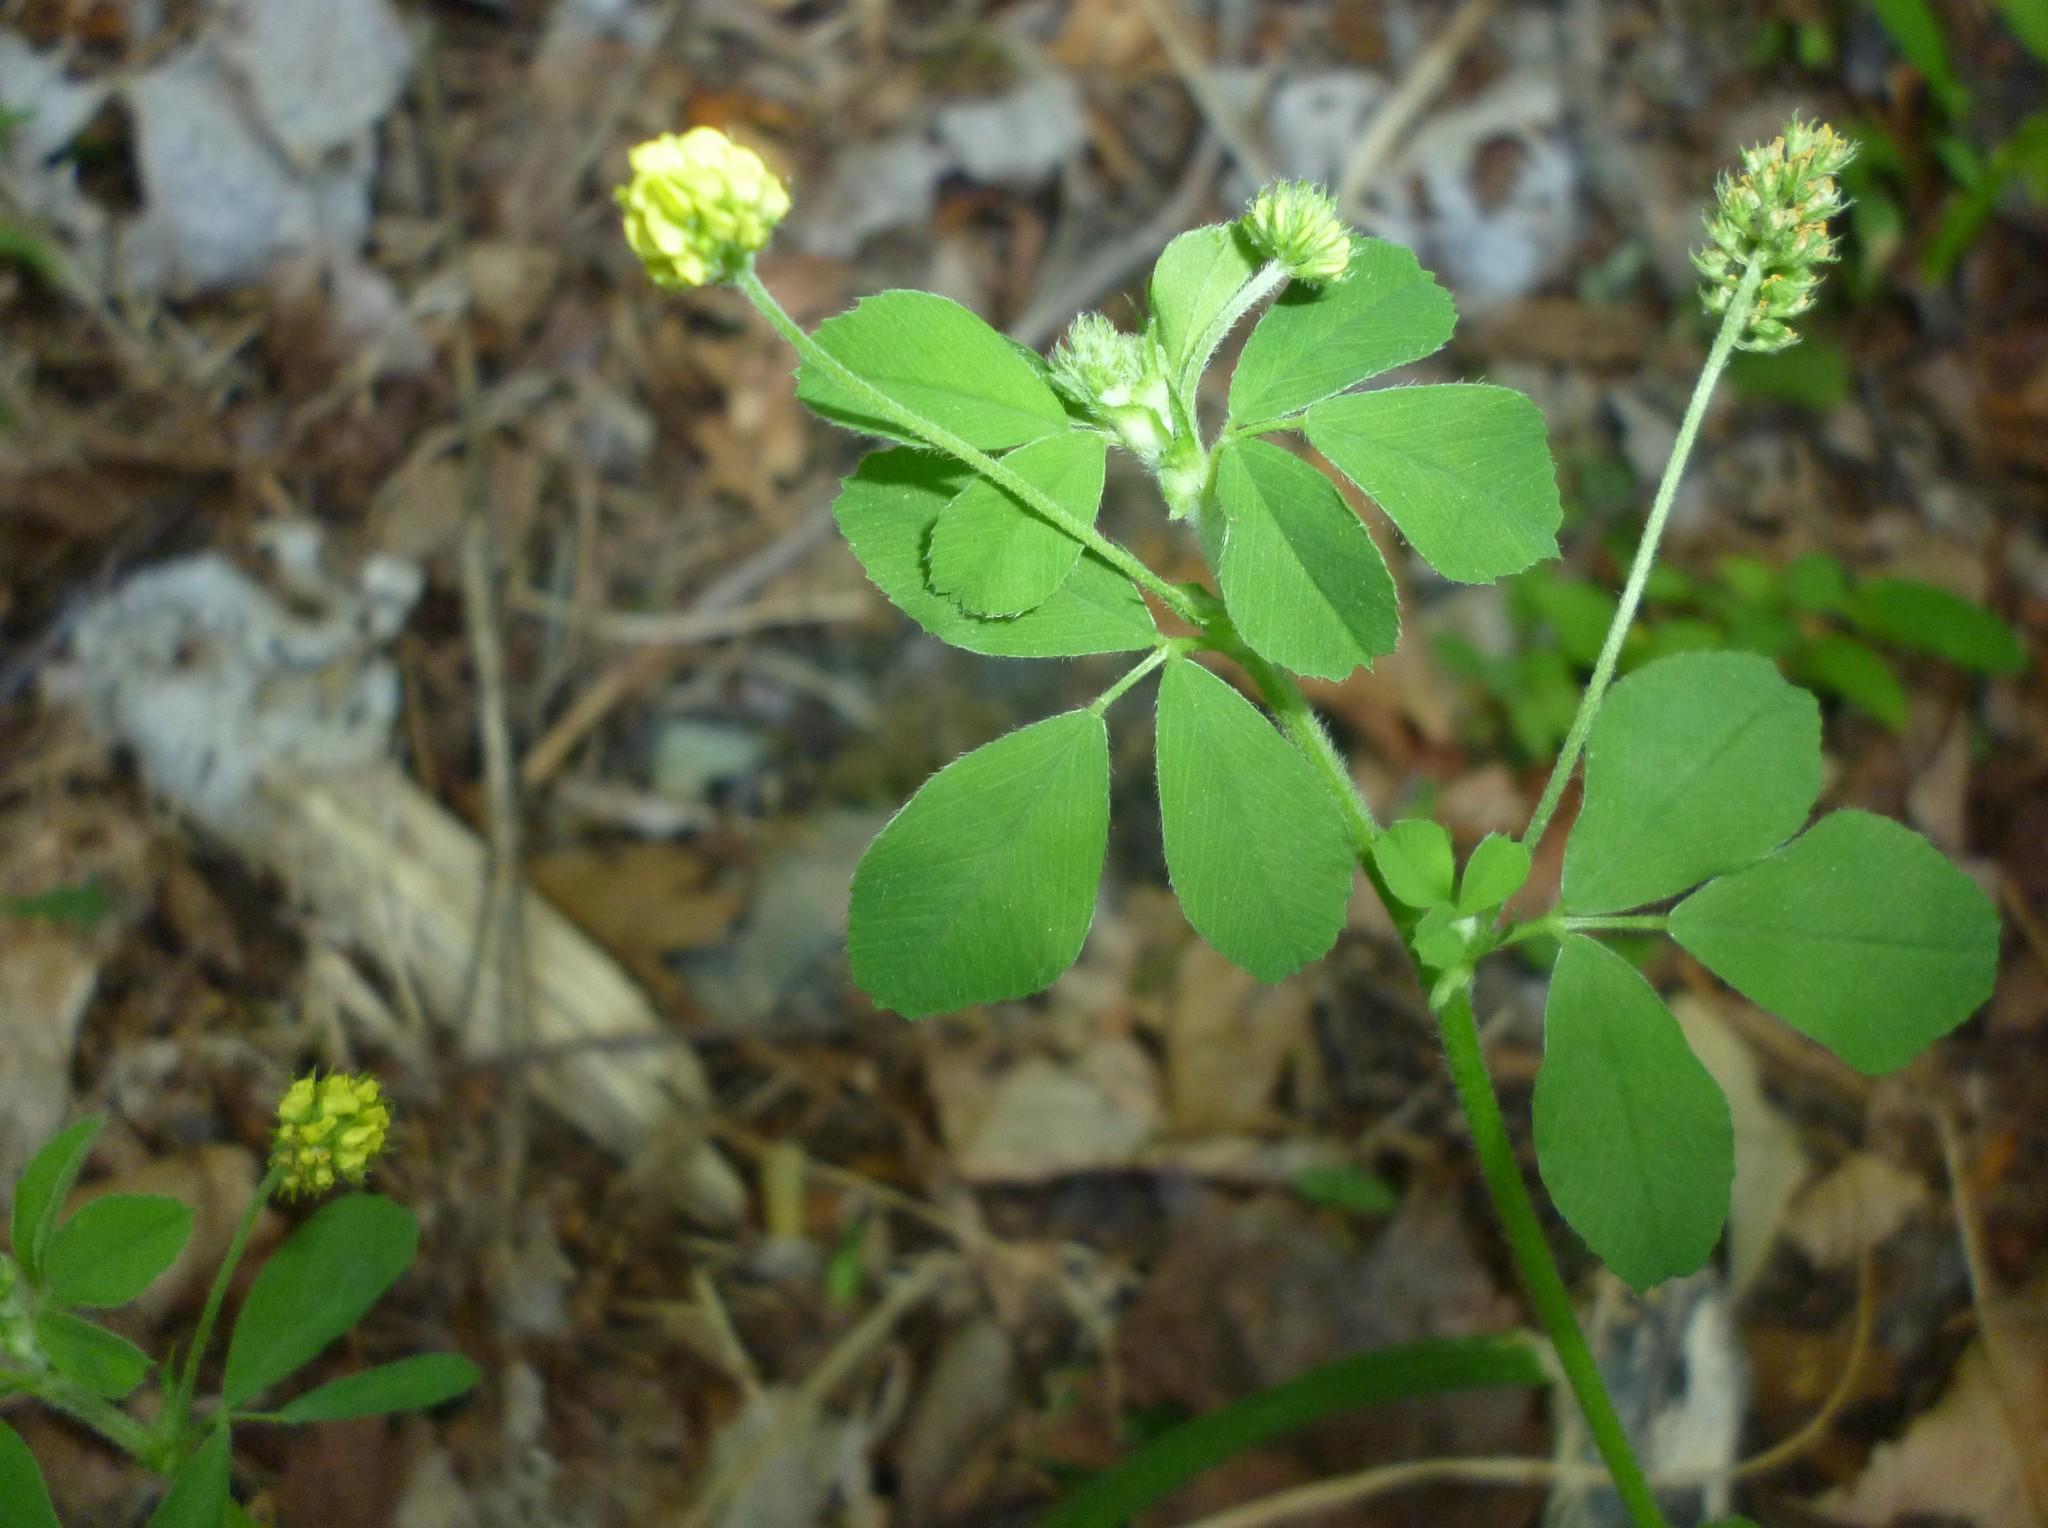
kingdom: Plantae
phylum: Tracheophyta
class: Magnoliopsida
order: Fabales
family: Fabaceae
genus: Medicago
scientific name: Medicago lupulina
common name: Black medick
